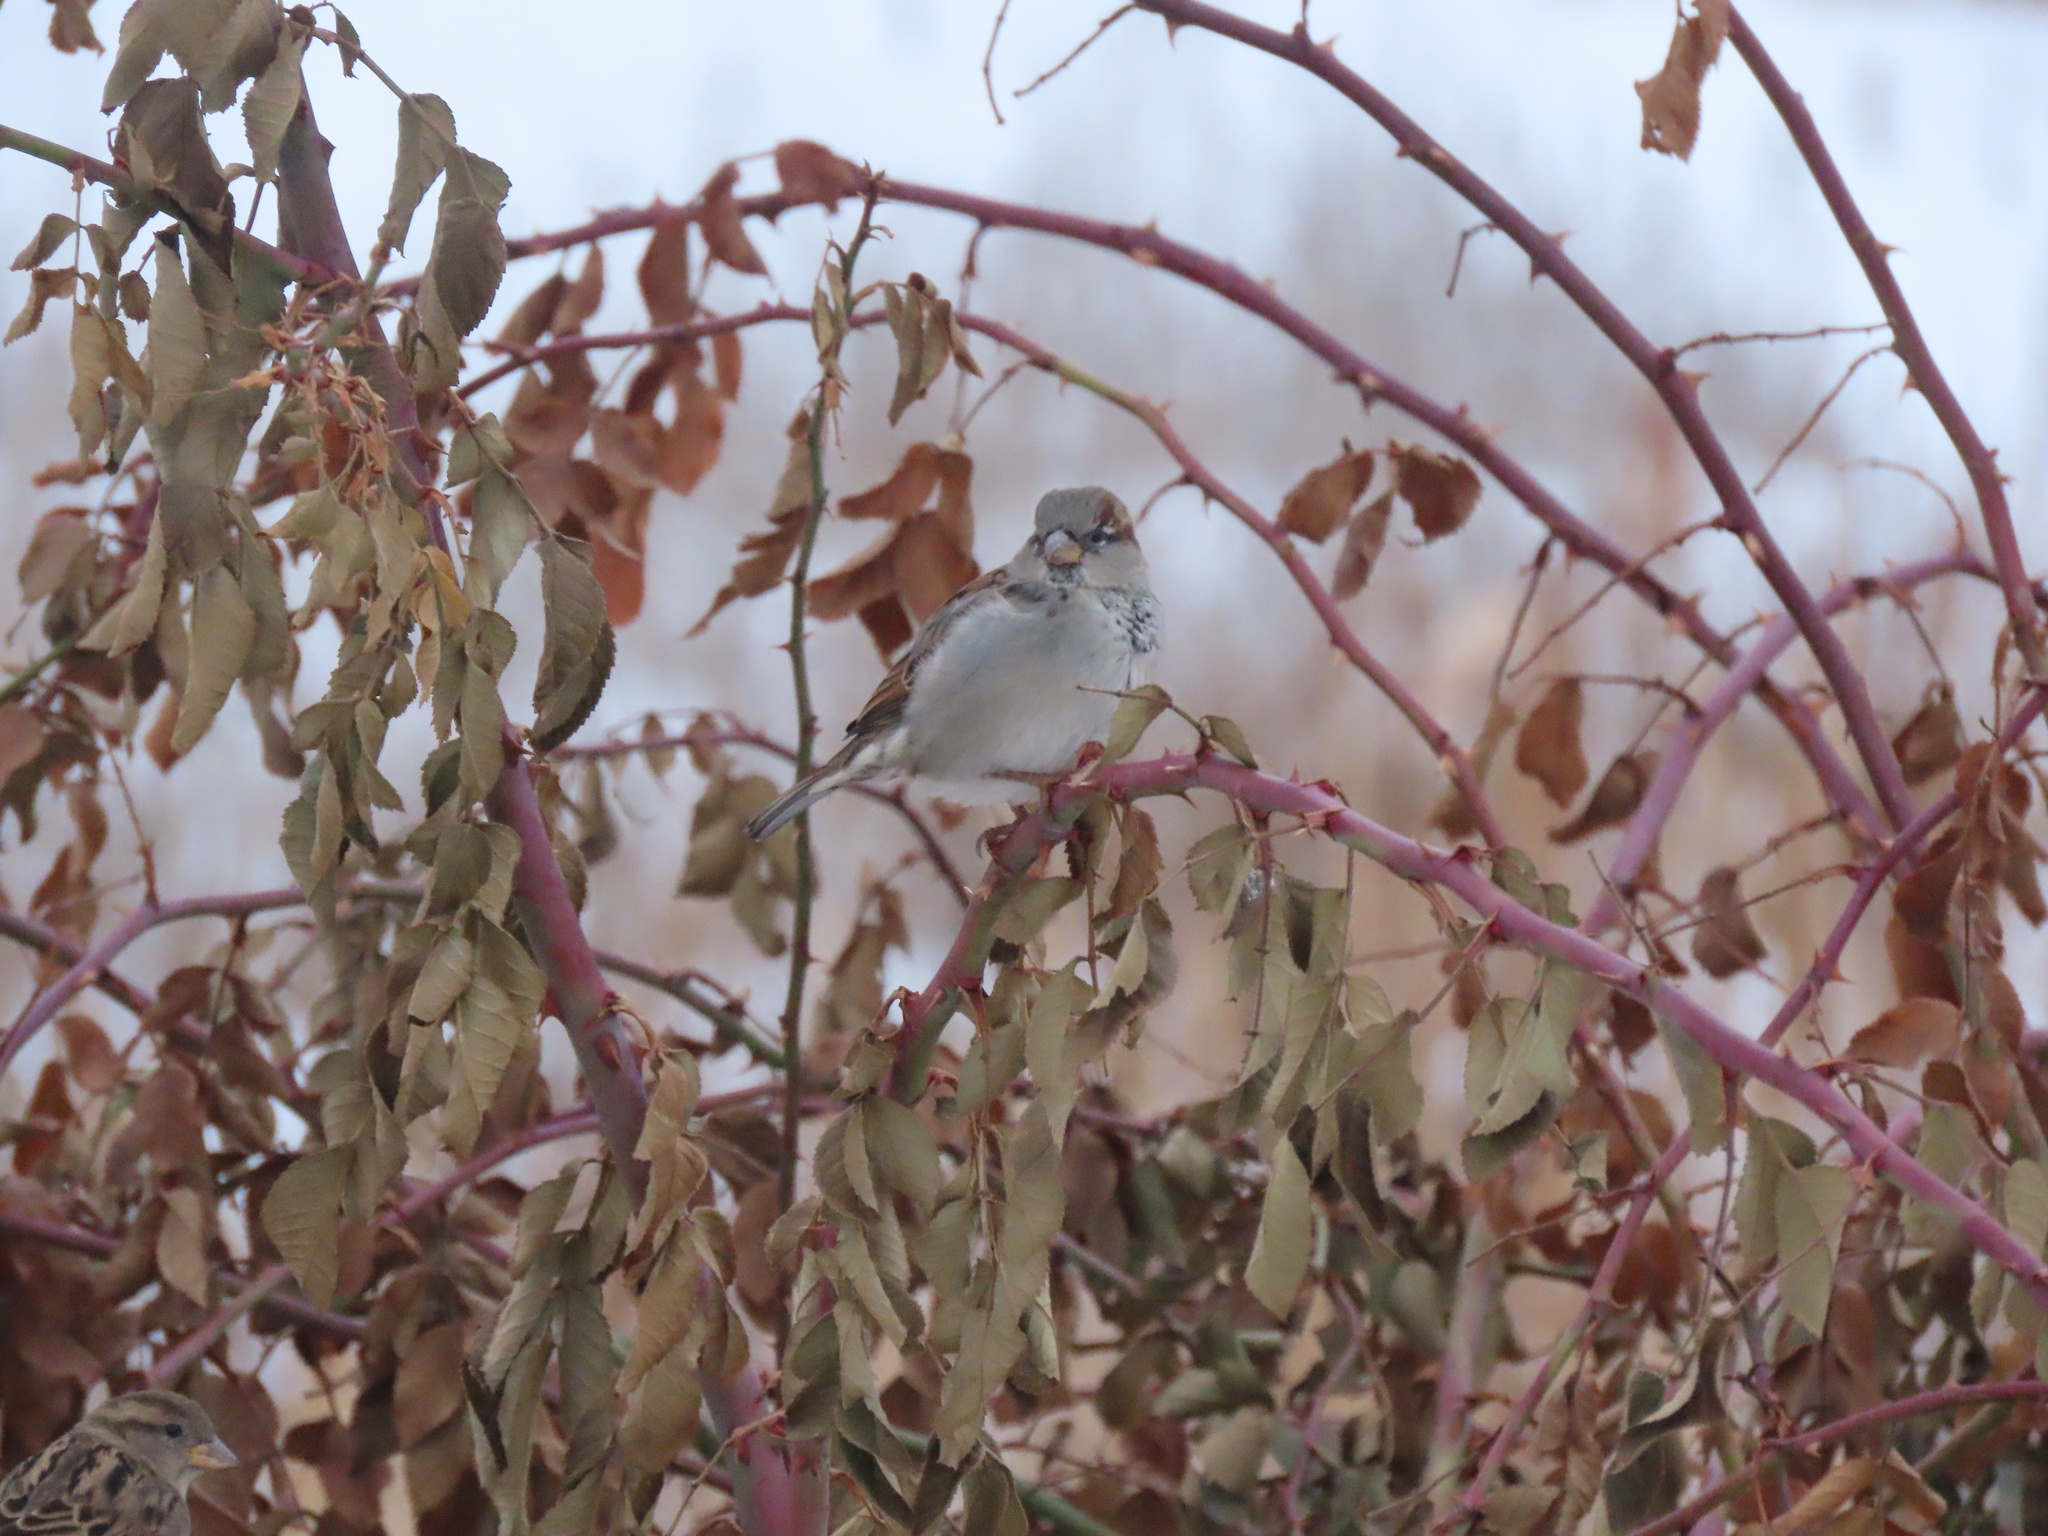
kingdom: Animalia
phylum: Chordata
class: Aves
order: Passeriformes
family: Passeridae
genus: Passer
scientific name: Passer domesticus
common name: House sparrow
